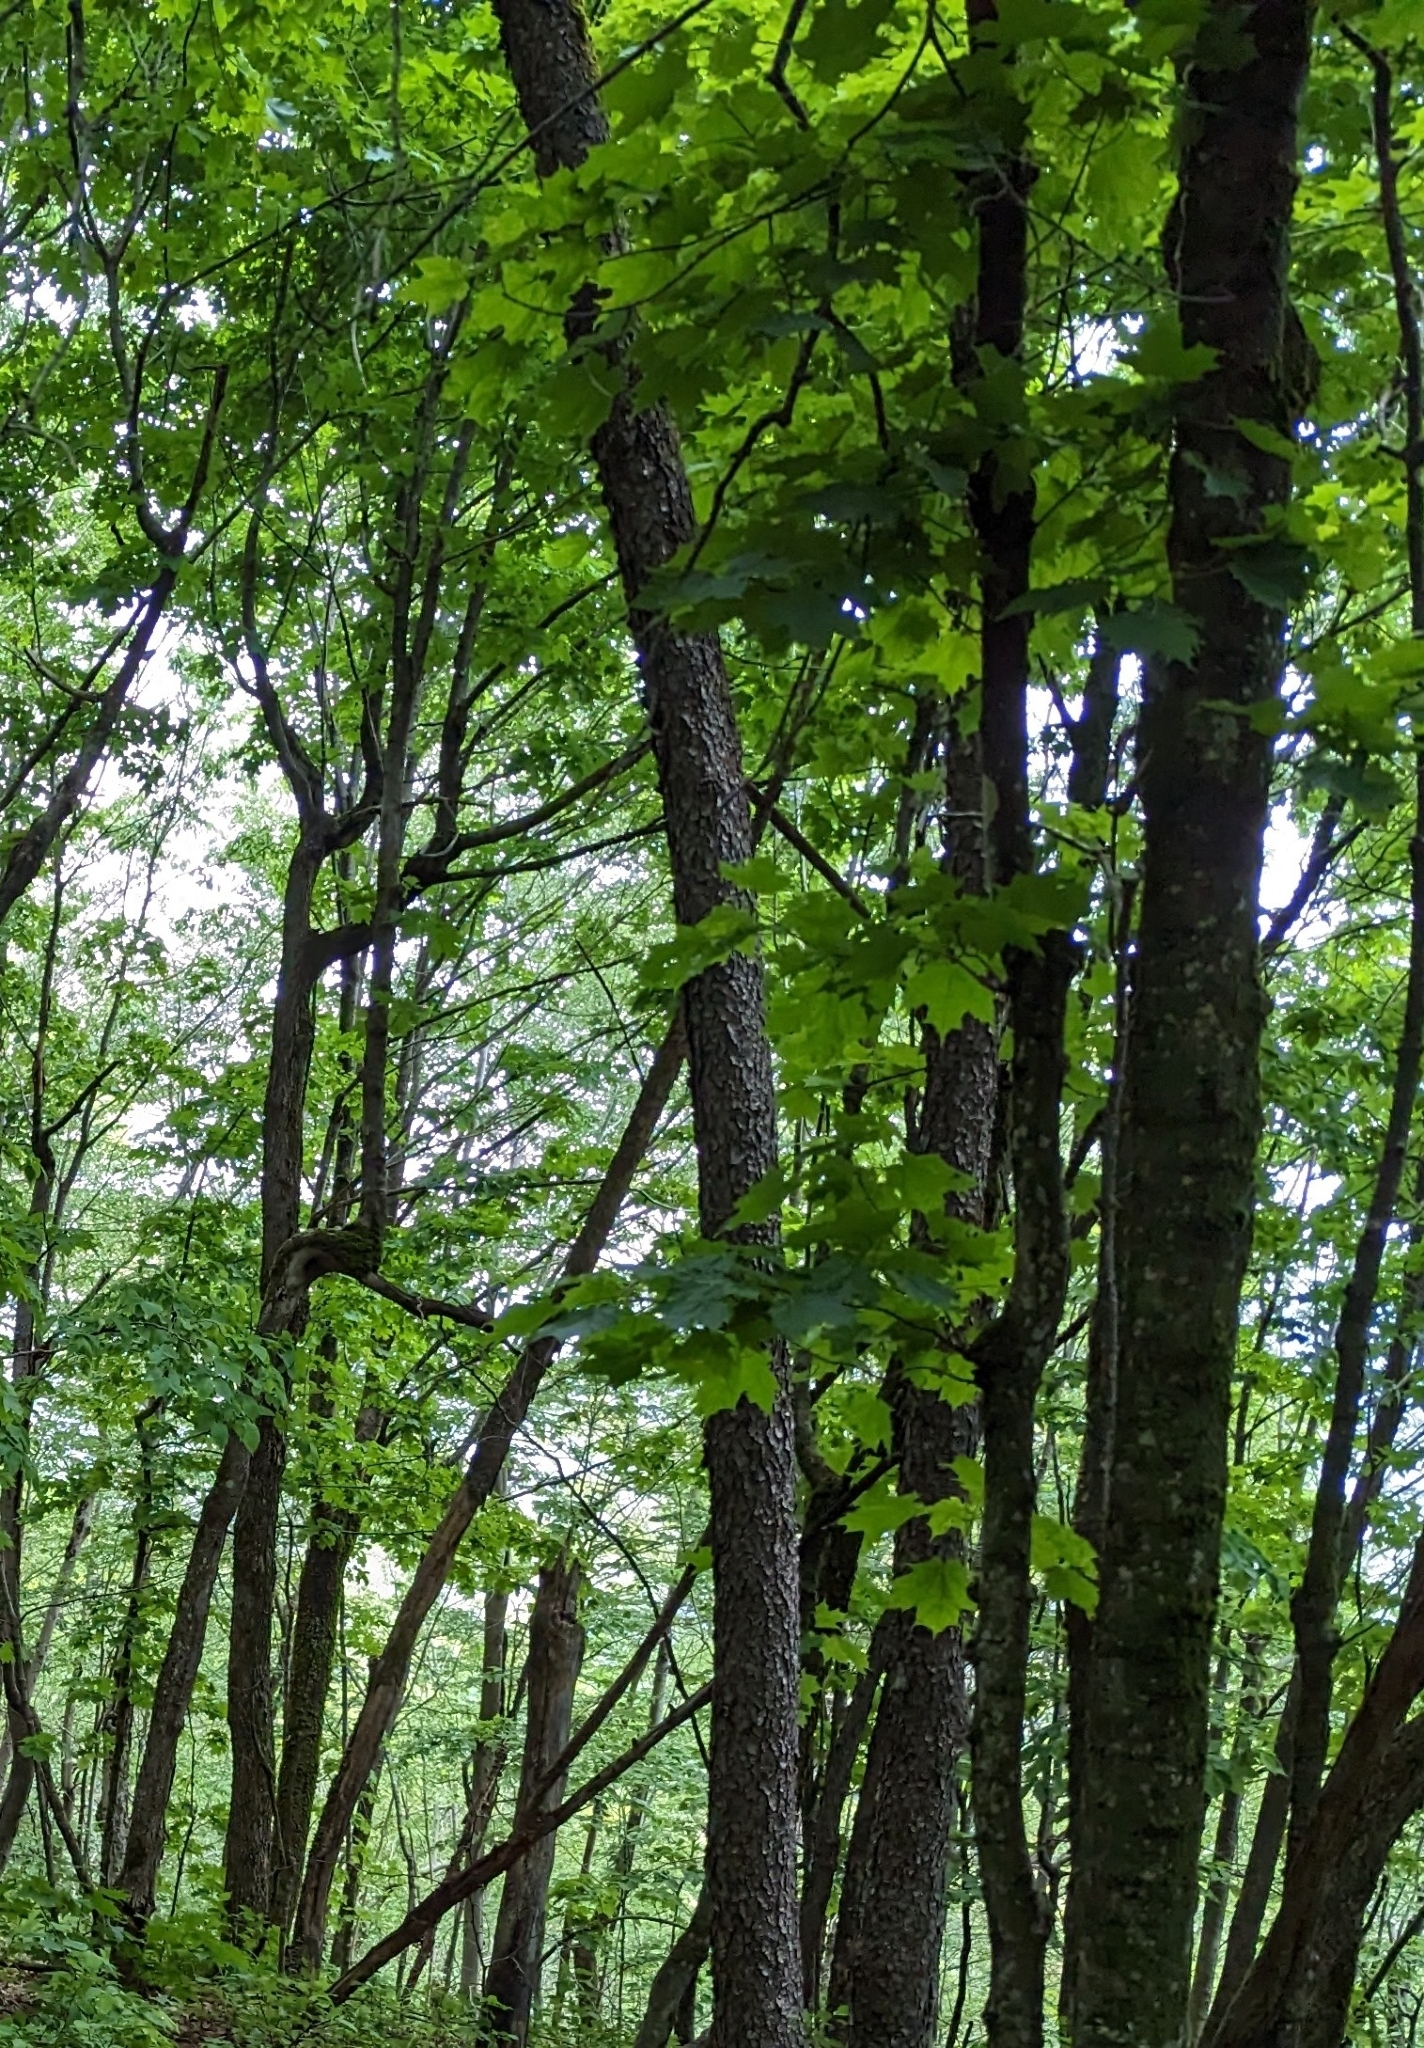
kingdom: Plantae
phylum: Tracheophyta
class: Magnoliopsida
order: Sapindales
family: Sapindaceae
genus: Acer
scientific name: Acer saccharum
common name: Sugar maple
